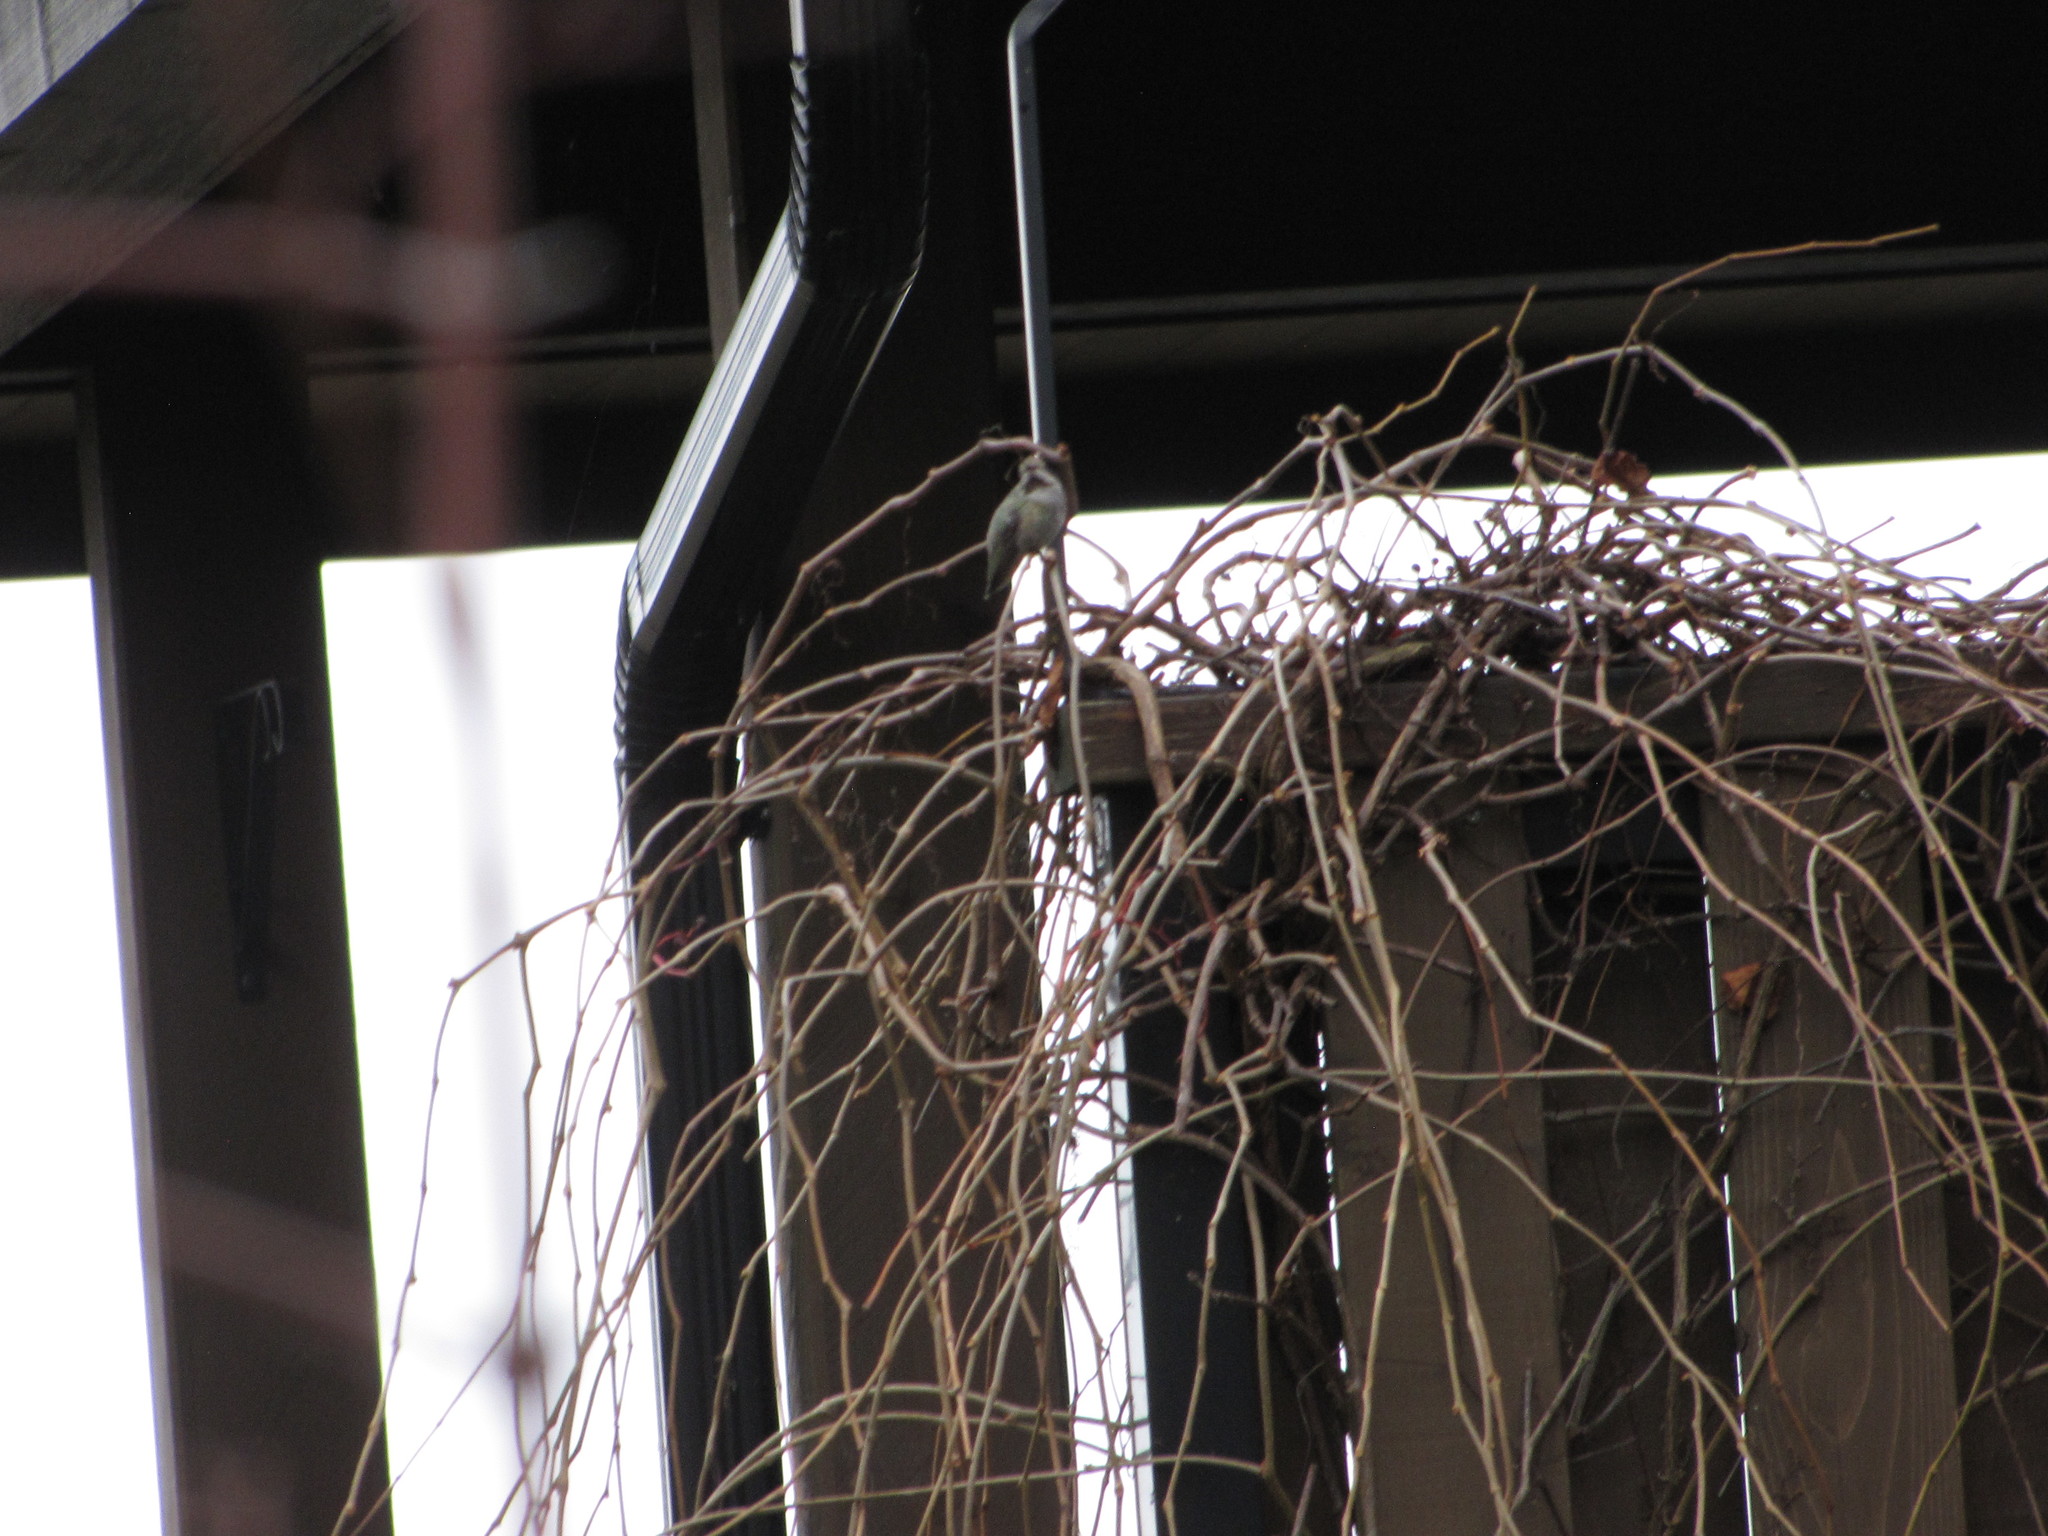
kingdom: Animalia
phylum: Chordata
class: Aves
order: Apodiformes
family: Trochilidae
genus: Calypte
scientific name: Calypte anna
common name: Anna's hummingbird
